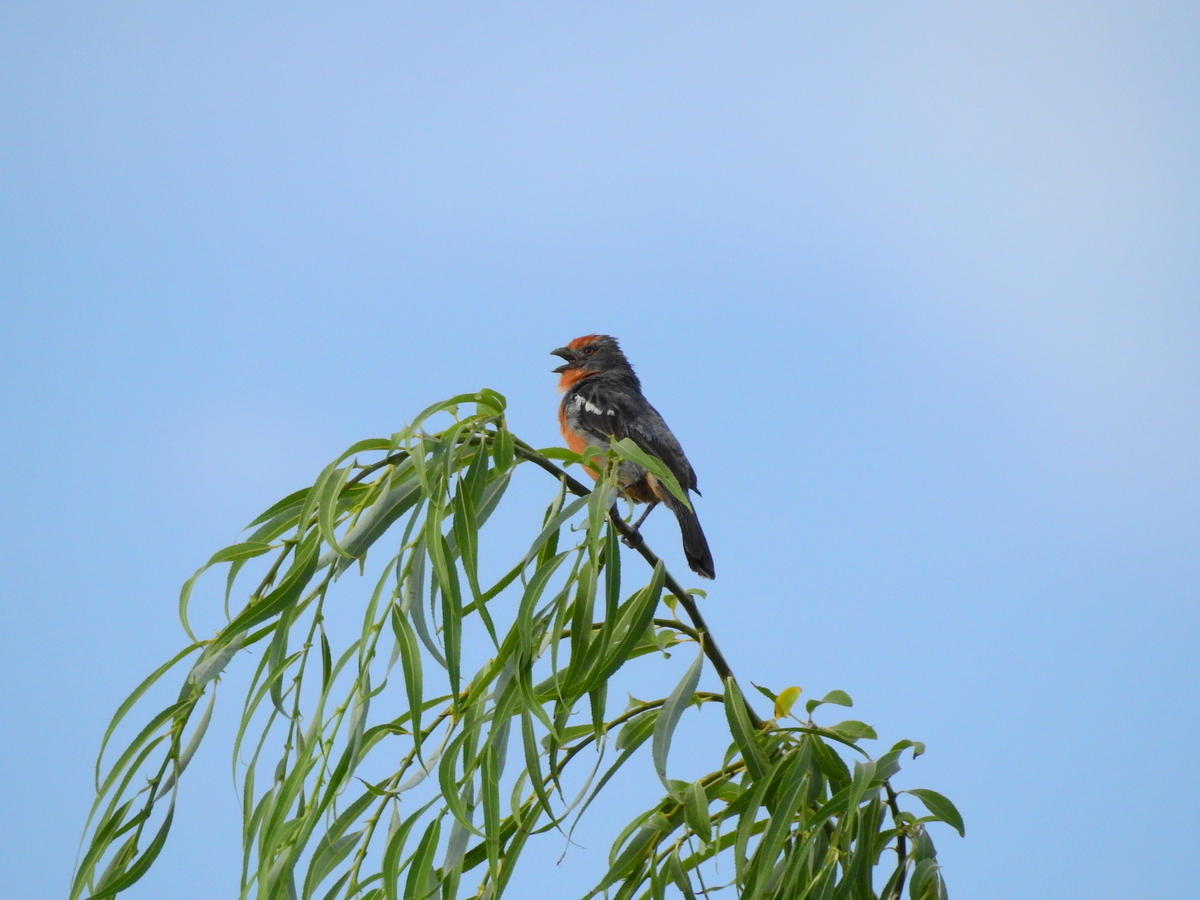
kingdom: Animalia
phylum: Chordata
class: Aves
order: Passeriformes
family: Cotingidae
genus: Phytotoma
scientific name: Phytotoma rutila
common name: White-tipped plantcutter
